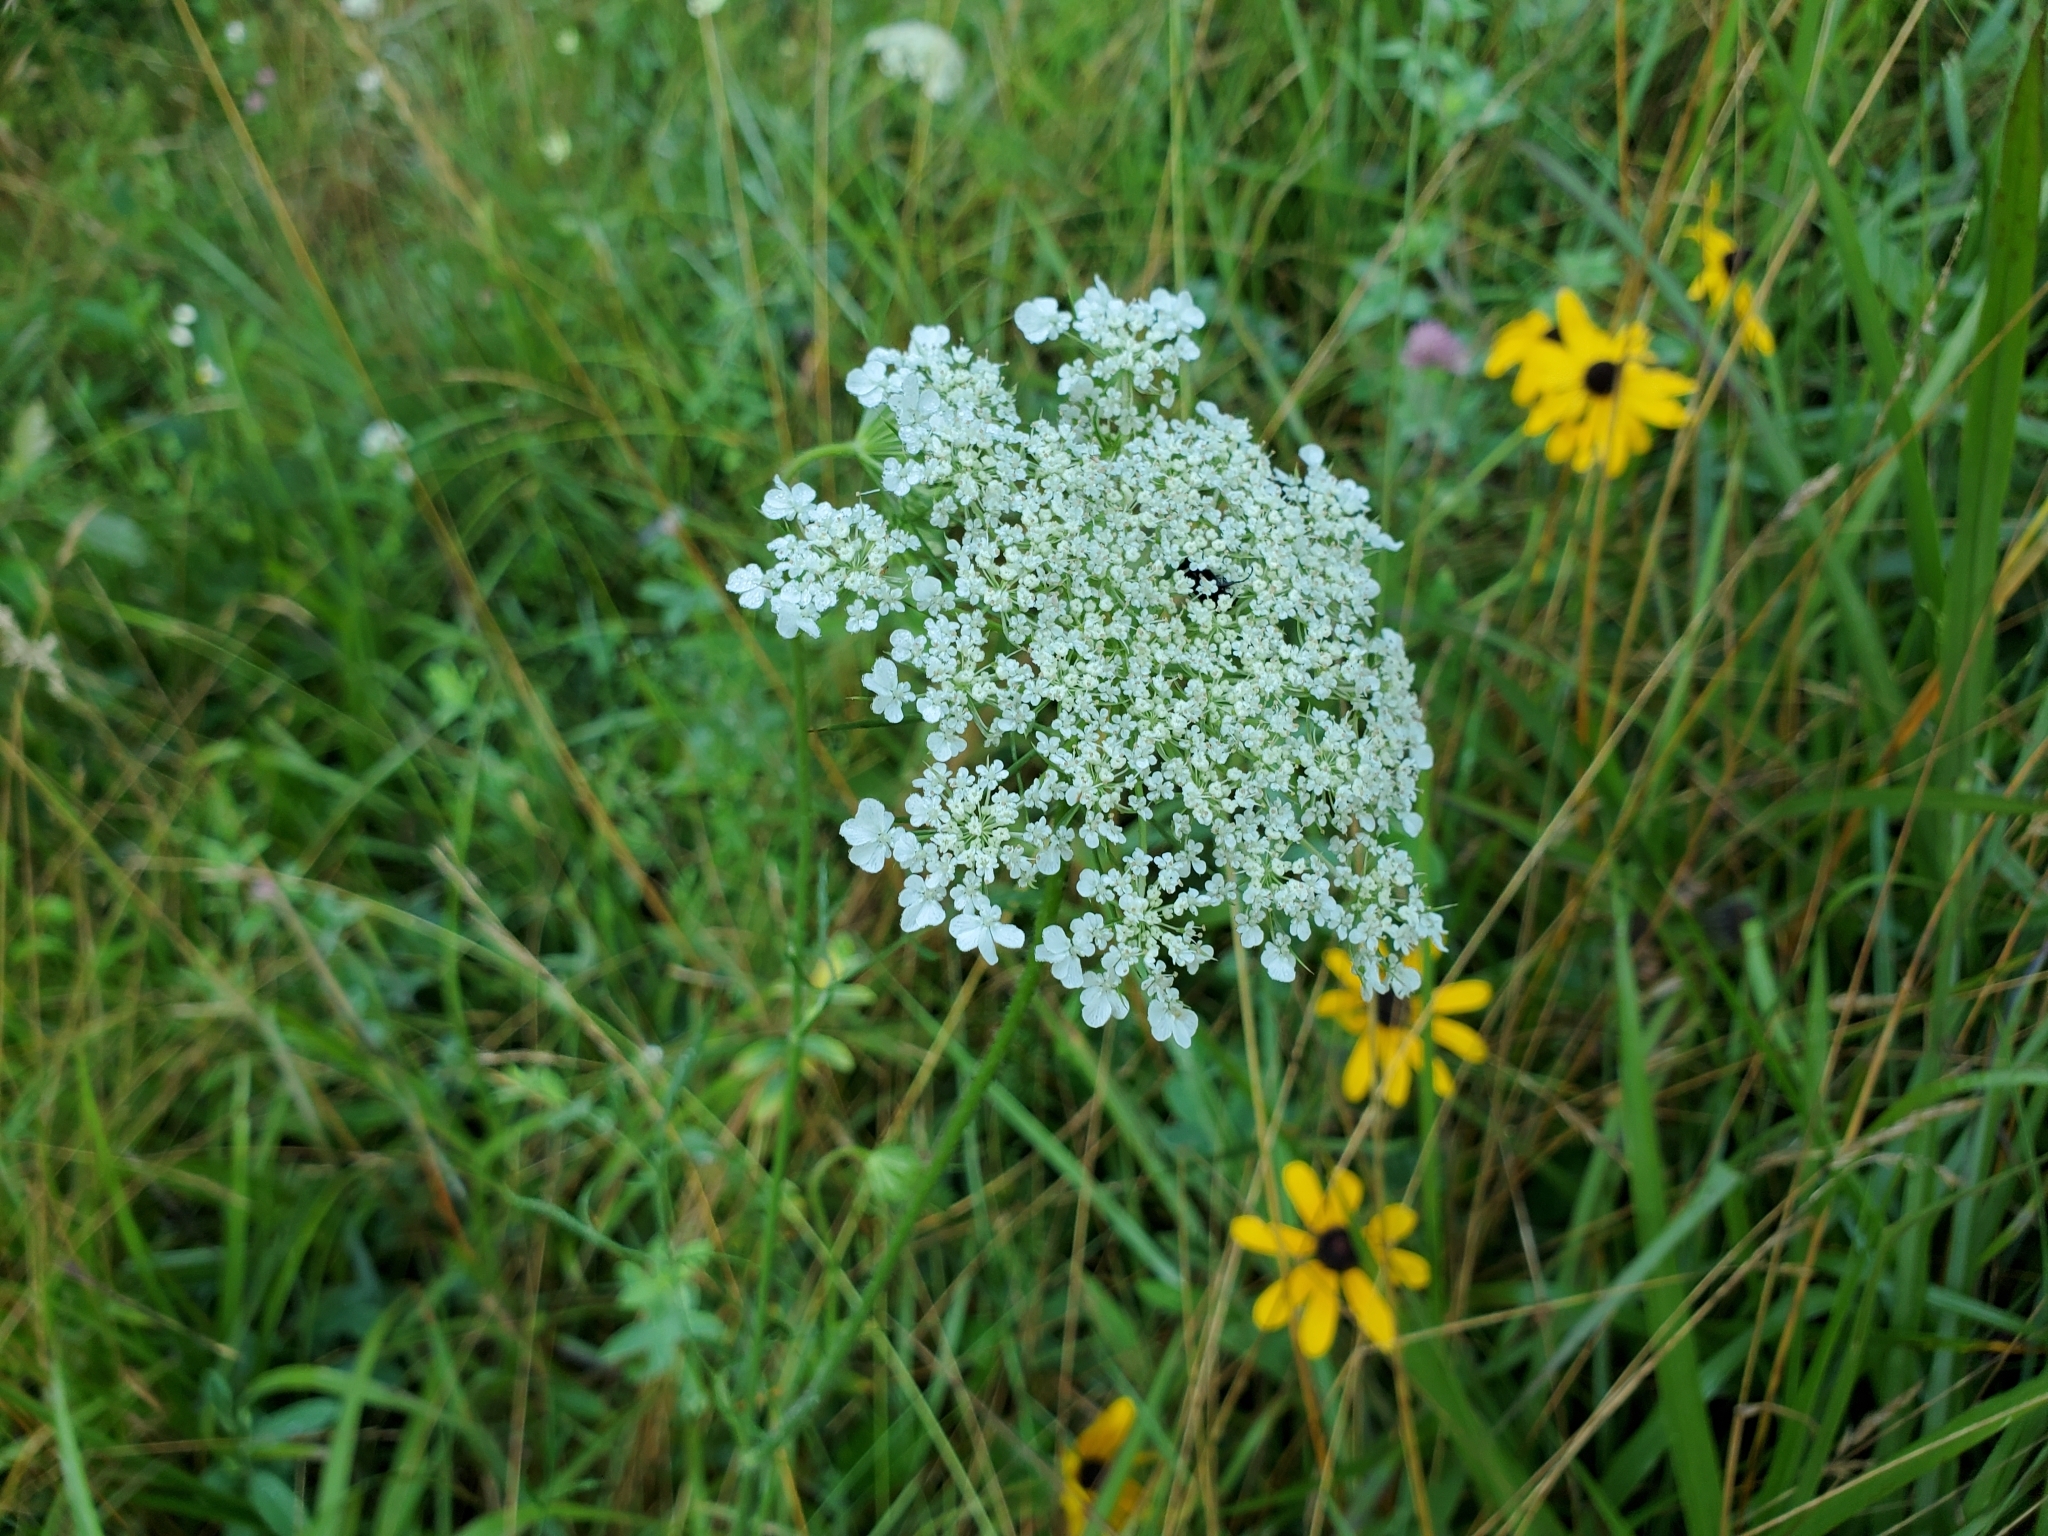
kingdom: Plantae
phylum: Tracheophyta
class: Magnoliopsida
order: Apiales
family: Apiaceae
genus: Daucus
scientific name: Daucus carota
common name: Wild carrot
